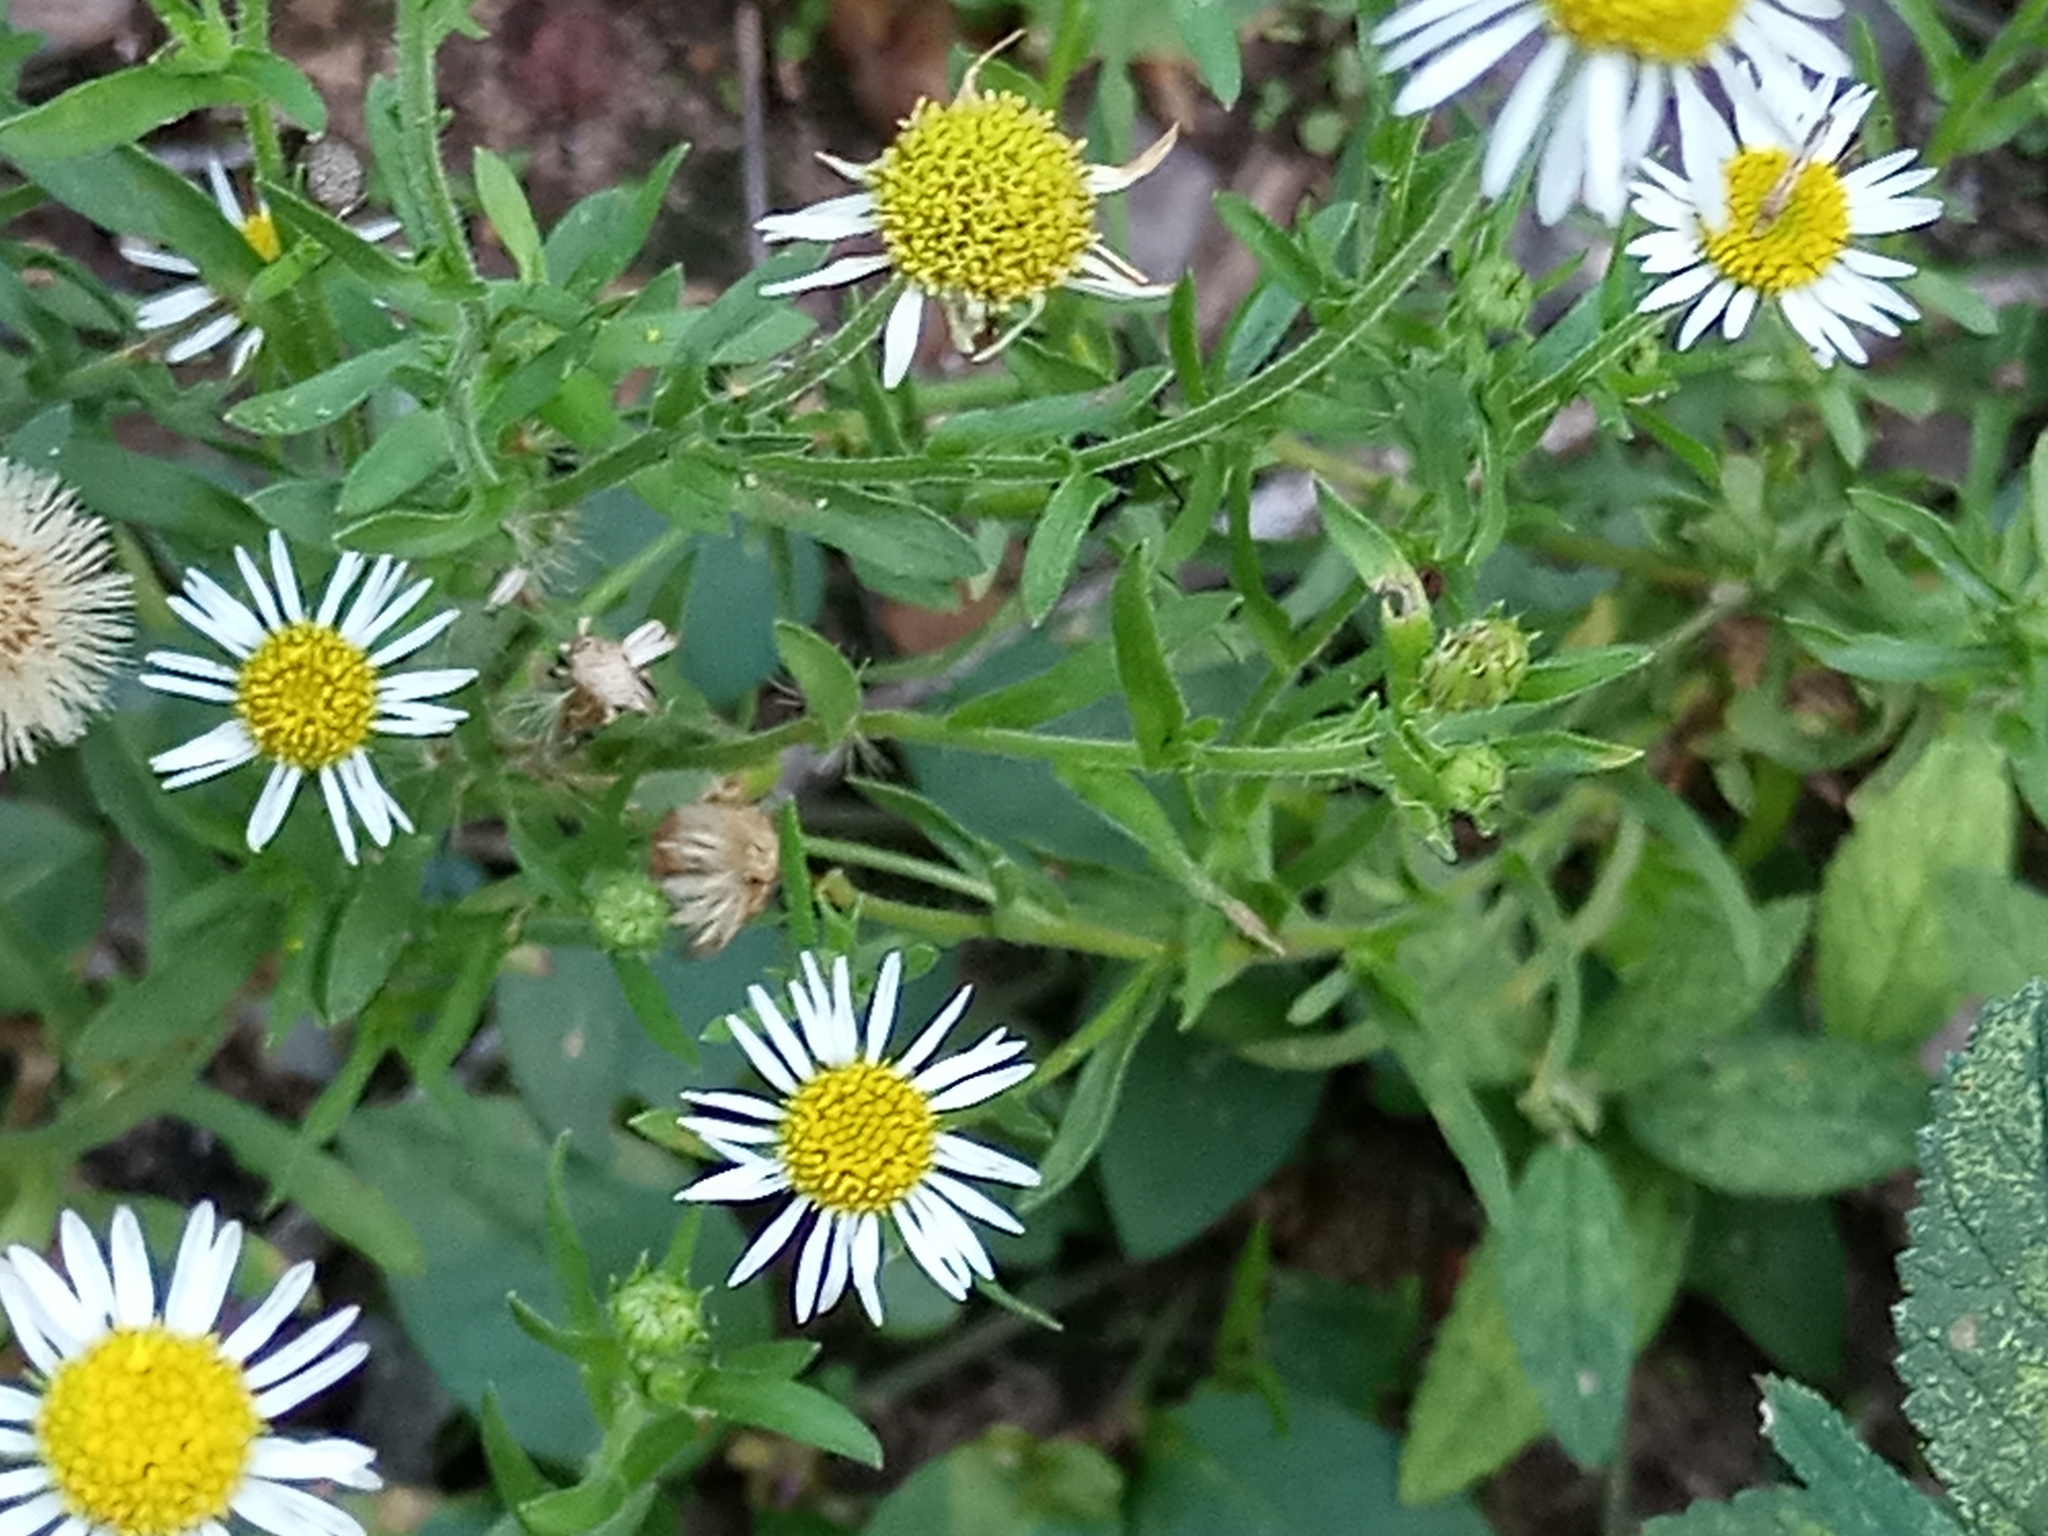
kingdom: Plantae
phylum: Tracheophyta
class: Magnoliopsida
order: Asterales
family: Asteraceae
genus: Hysterionica
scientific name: Hysterionica resinosa
